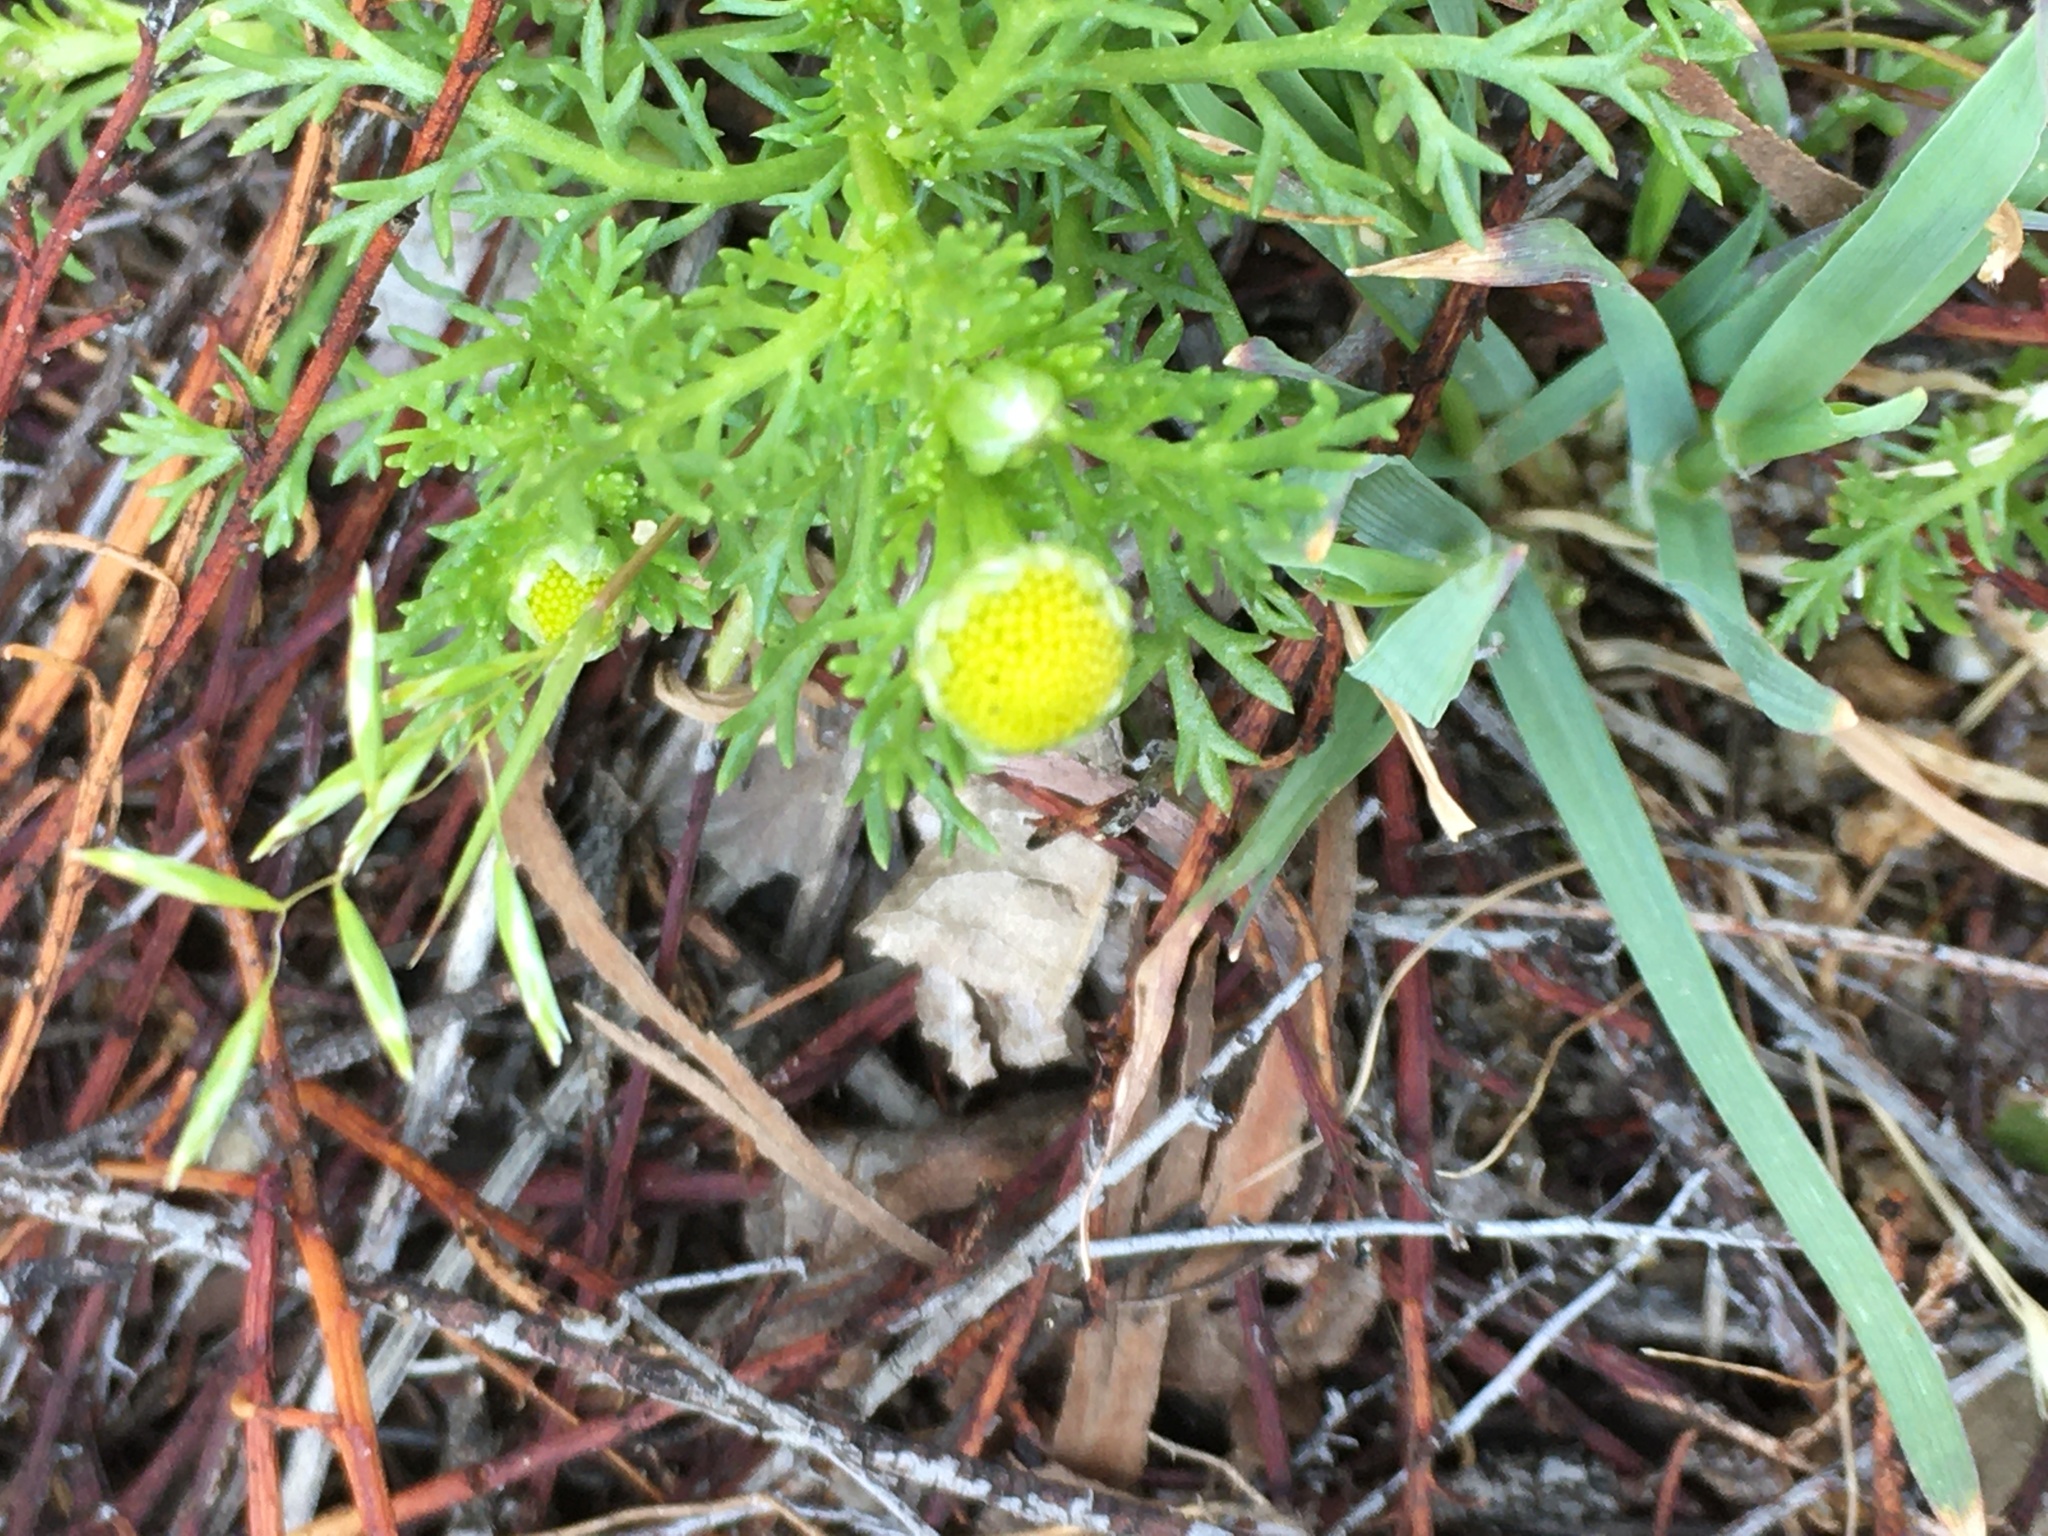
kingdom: Plantae
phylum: Tracheophyta
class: Magnoliopsida
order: Asterales
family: Asteraceae
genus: Matricaria
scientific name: Matricaria discoidea
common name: Disc mayweed
